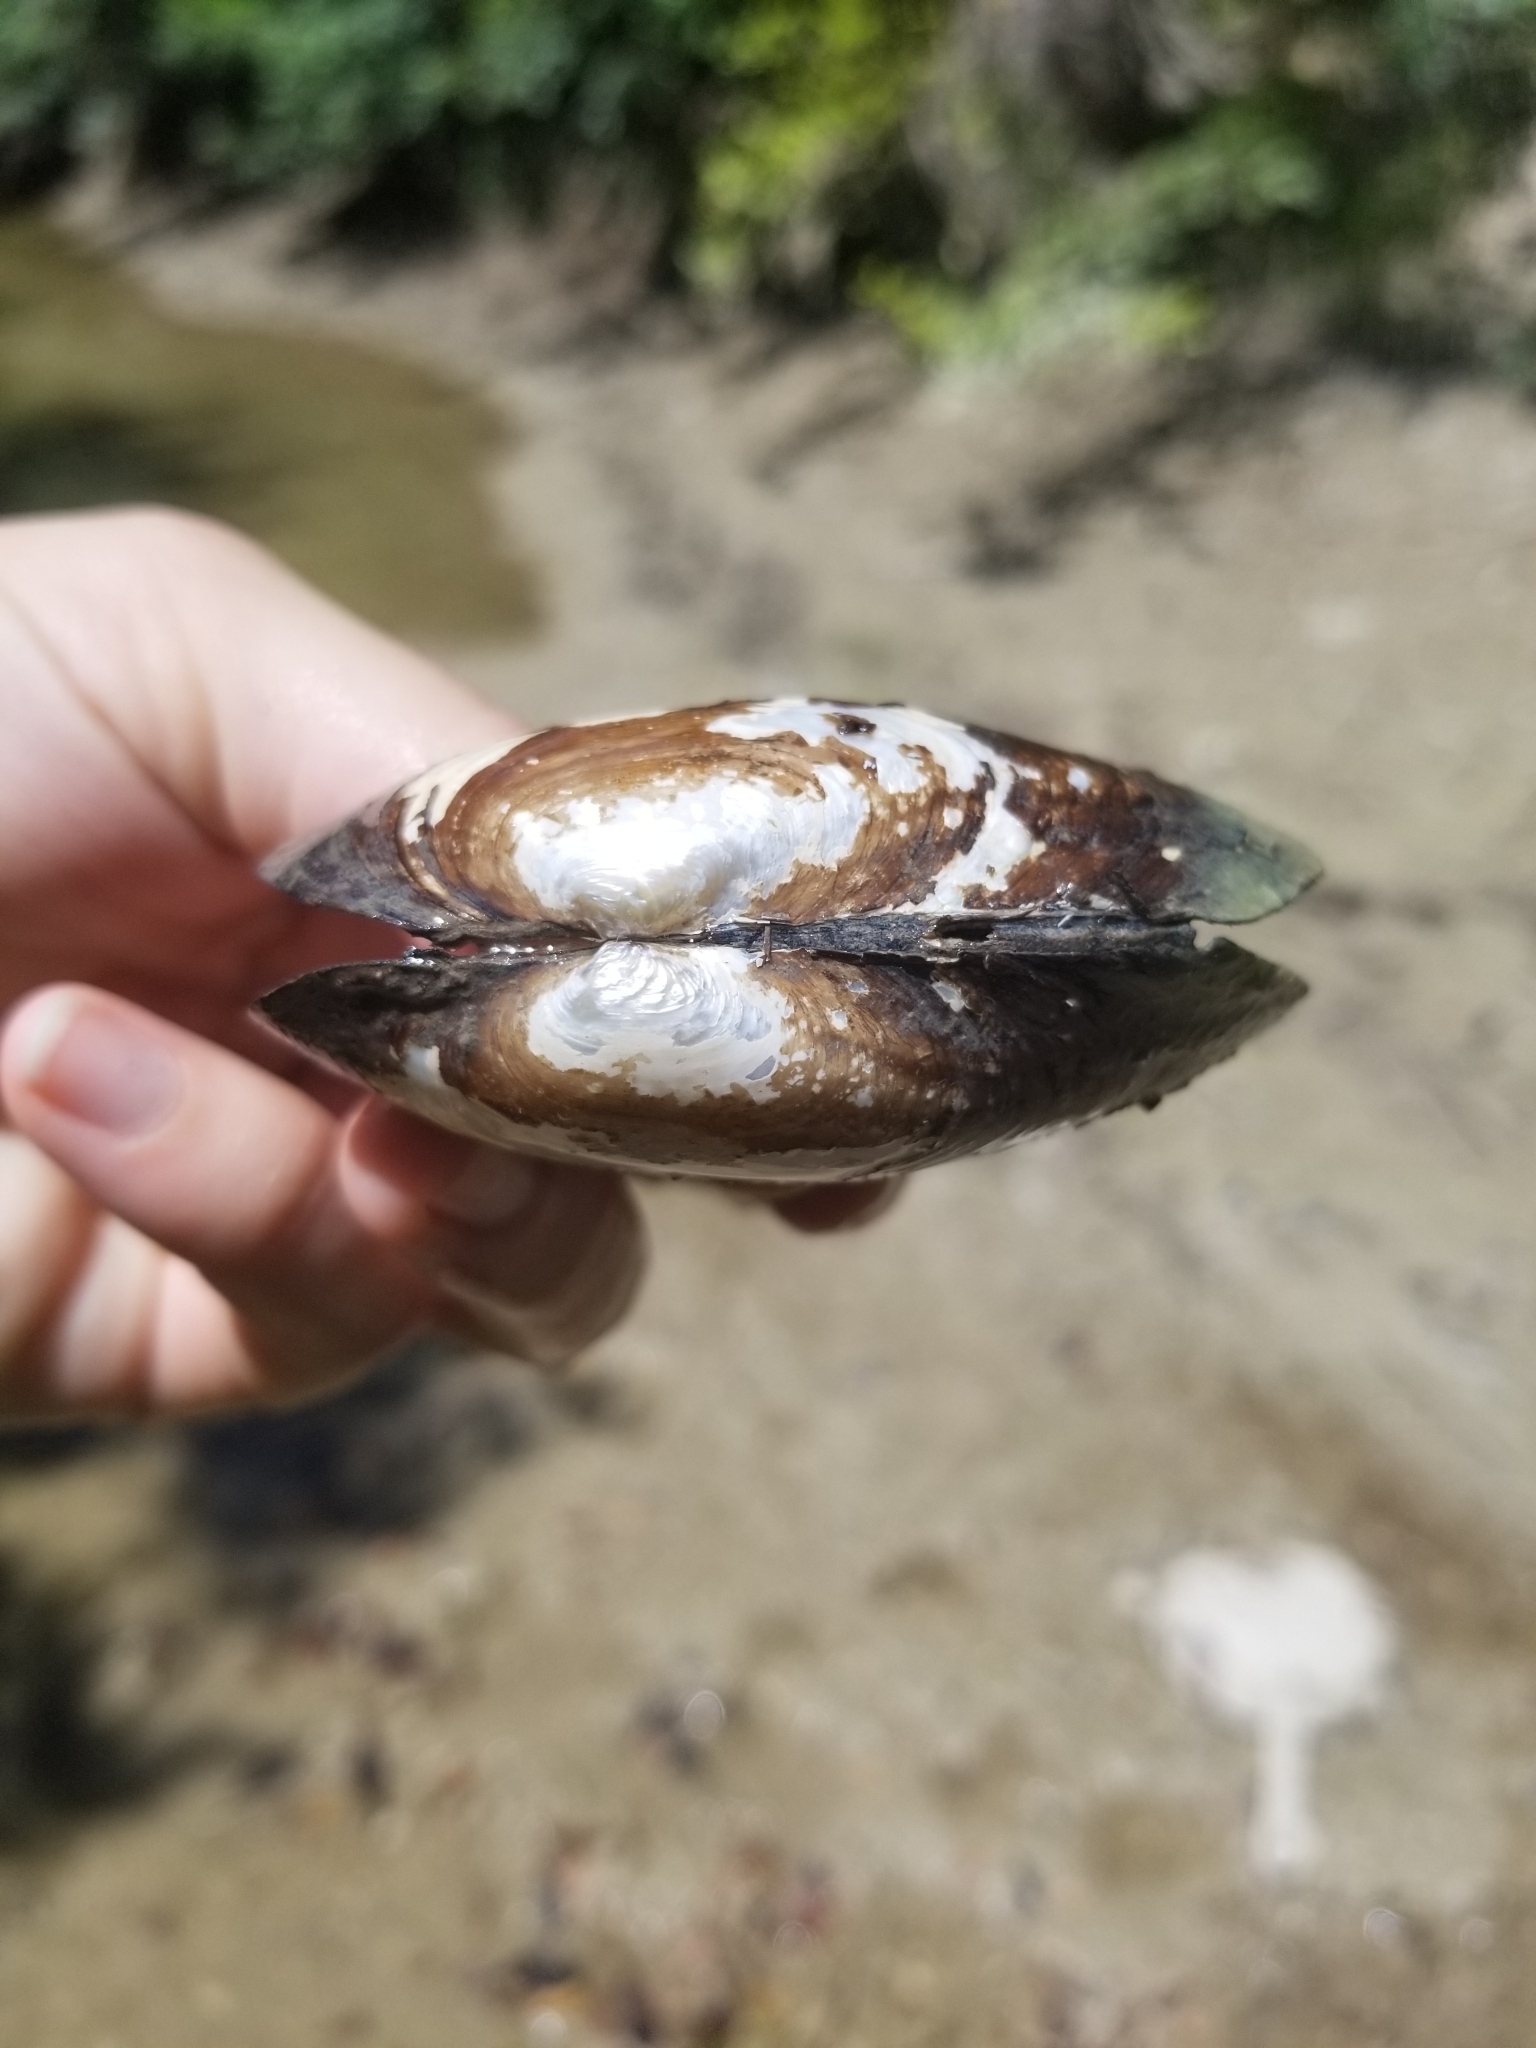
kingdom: Animalia
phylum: Mollusca
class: Bivalvia
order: Unionida
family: Unionidae
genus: Uniomerus
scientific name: Uniomerus tetralasmus
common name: Pondhorn
